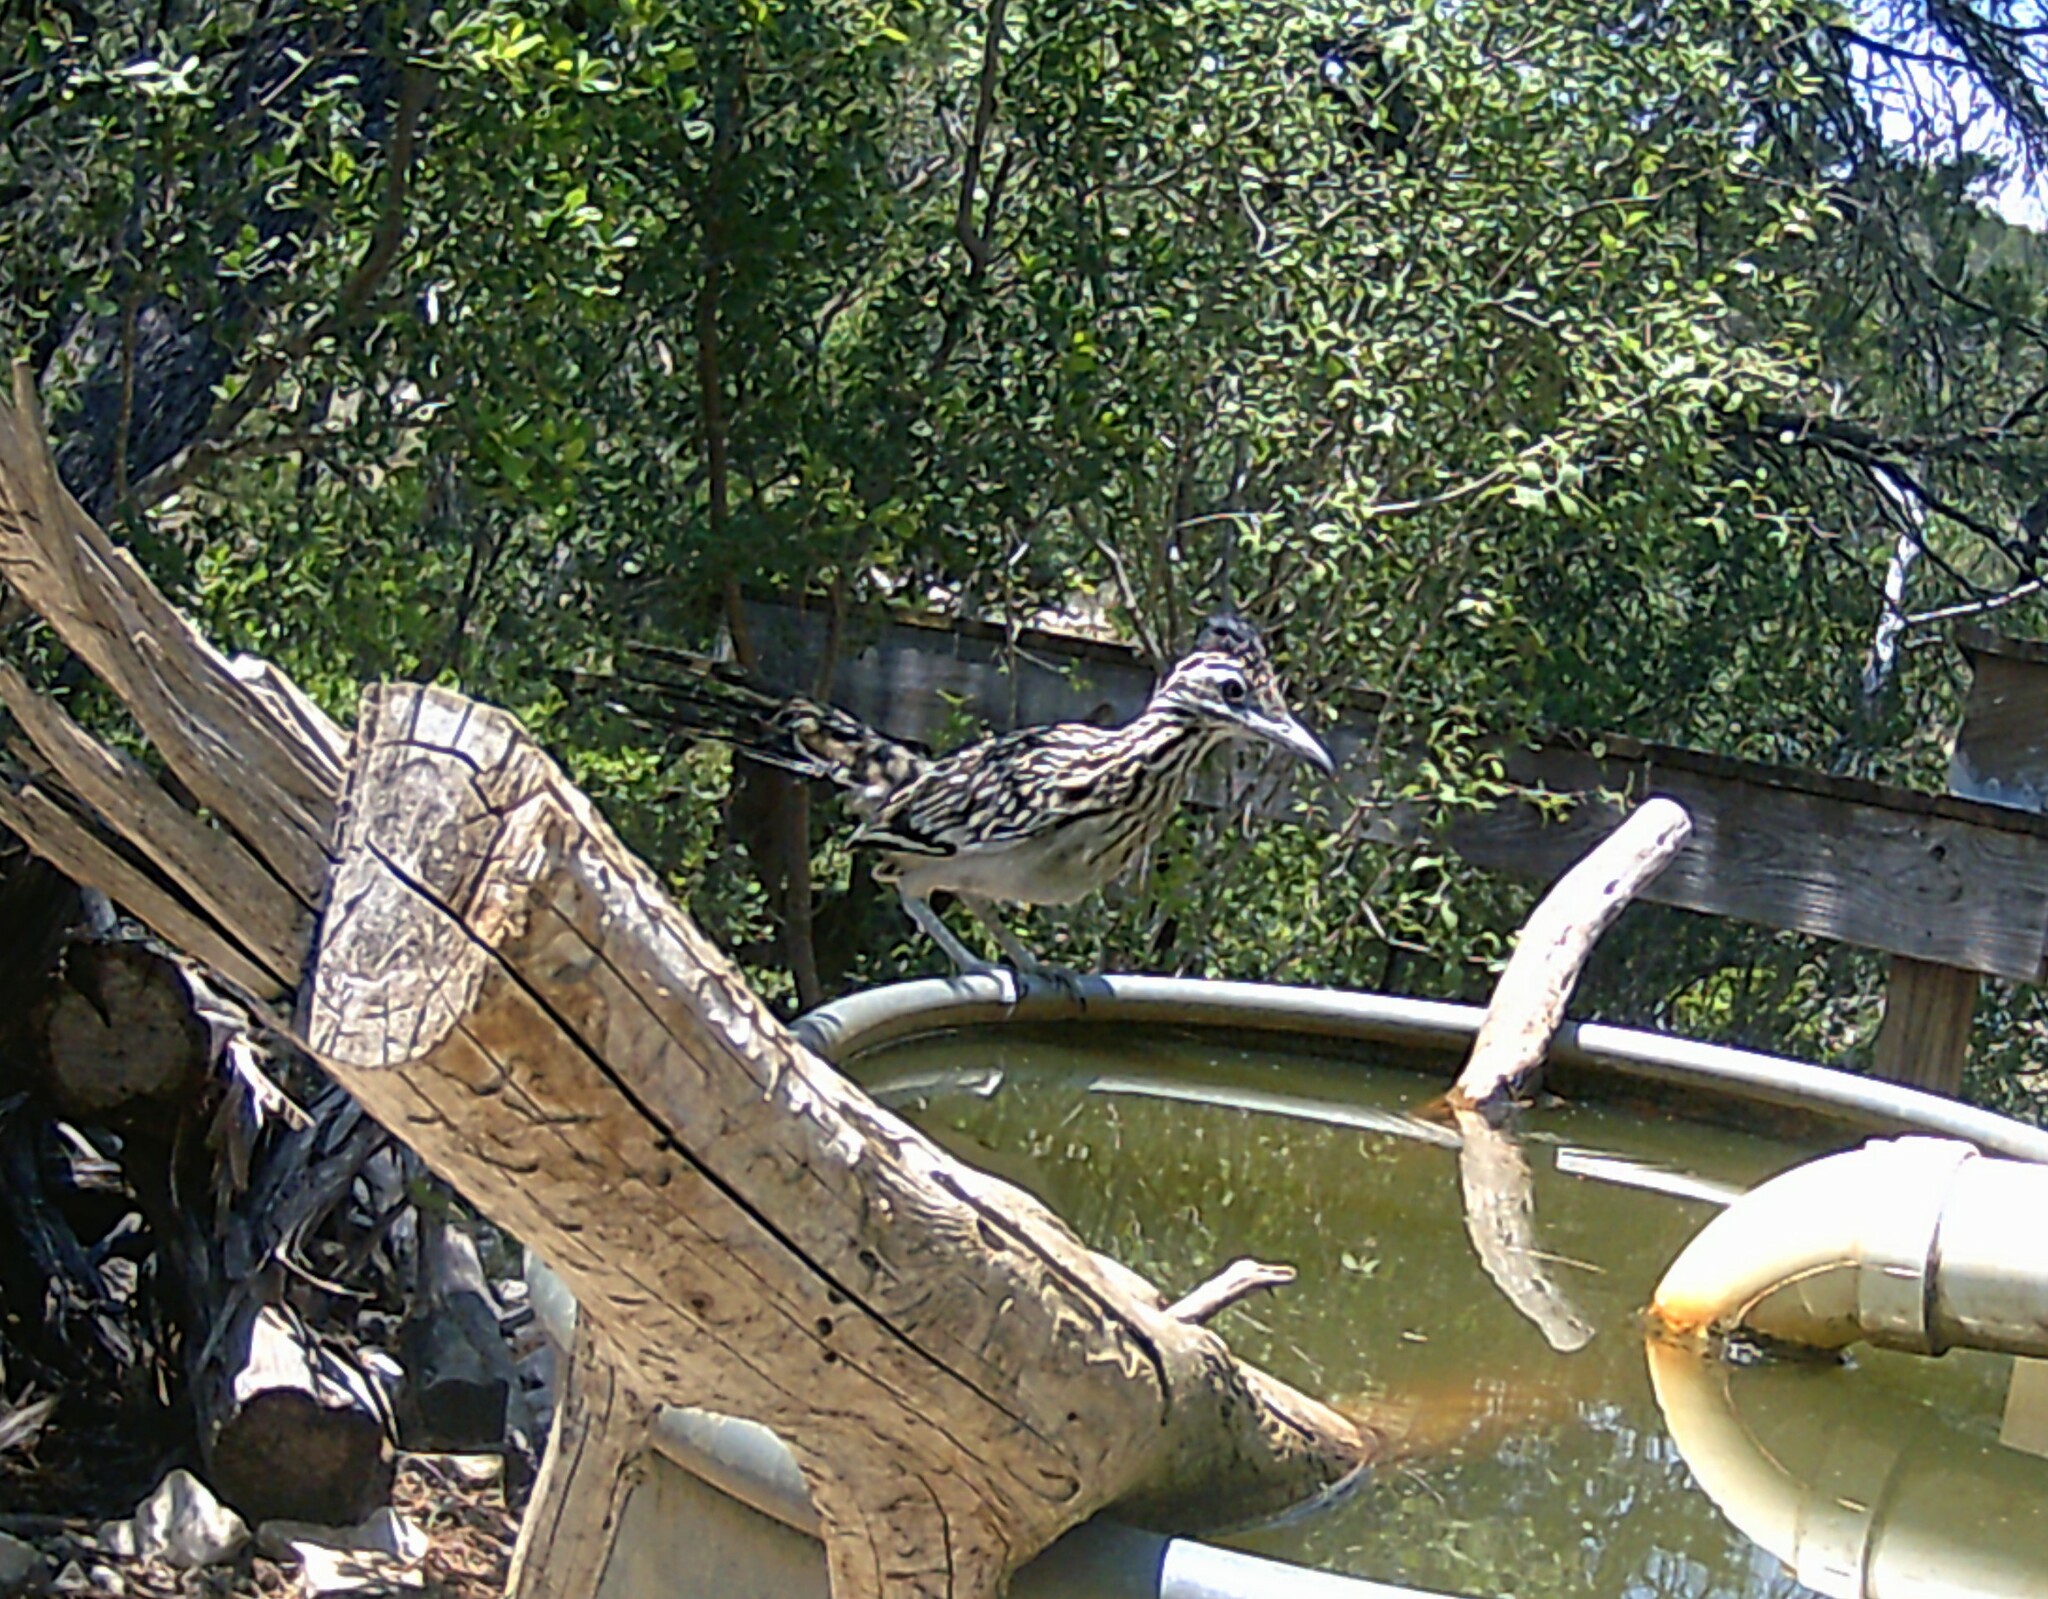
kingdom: Animalia
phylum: Chordata
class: Aves
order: Cuculiformes
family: Cuculidae
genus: Geococcyx
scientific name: Geococcyx californianus
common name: Greater roadrunner
